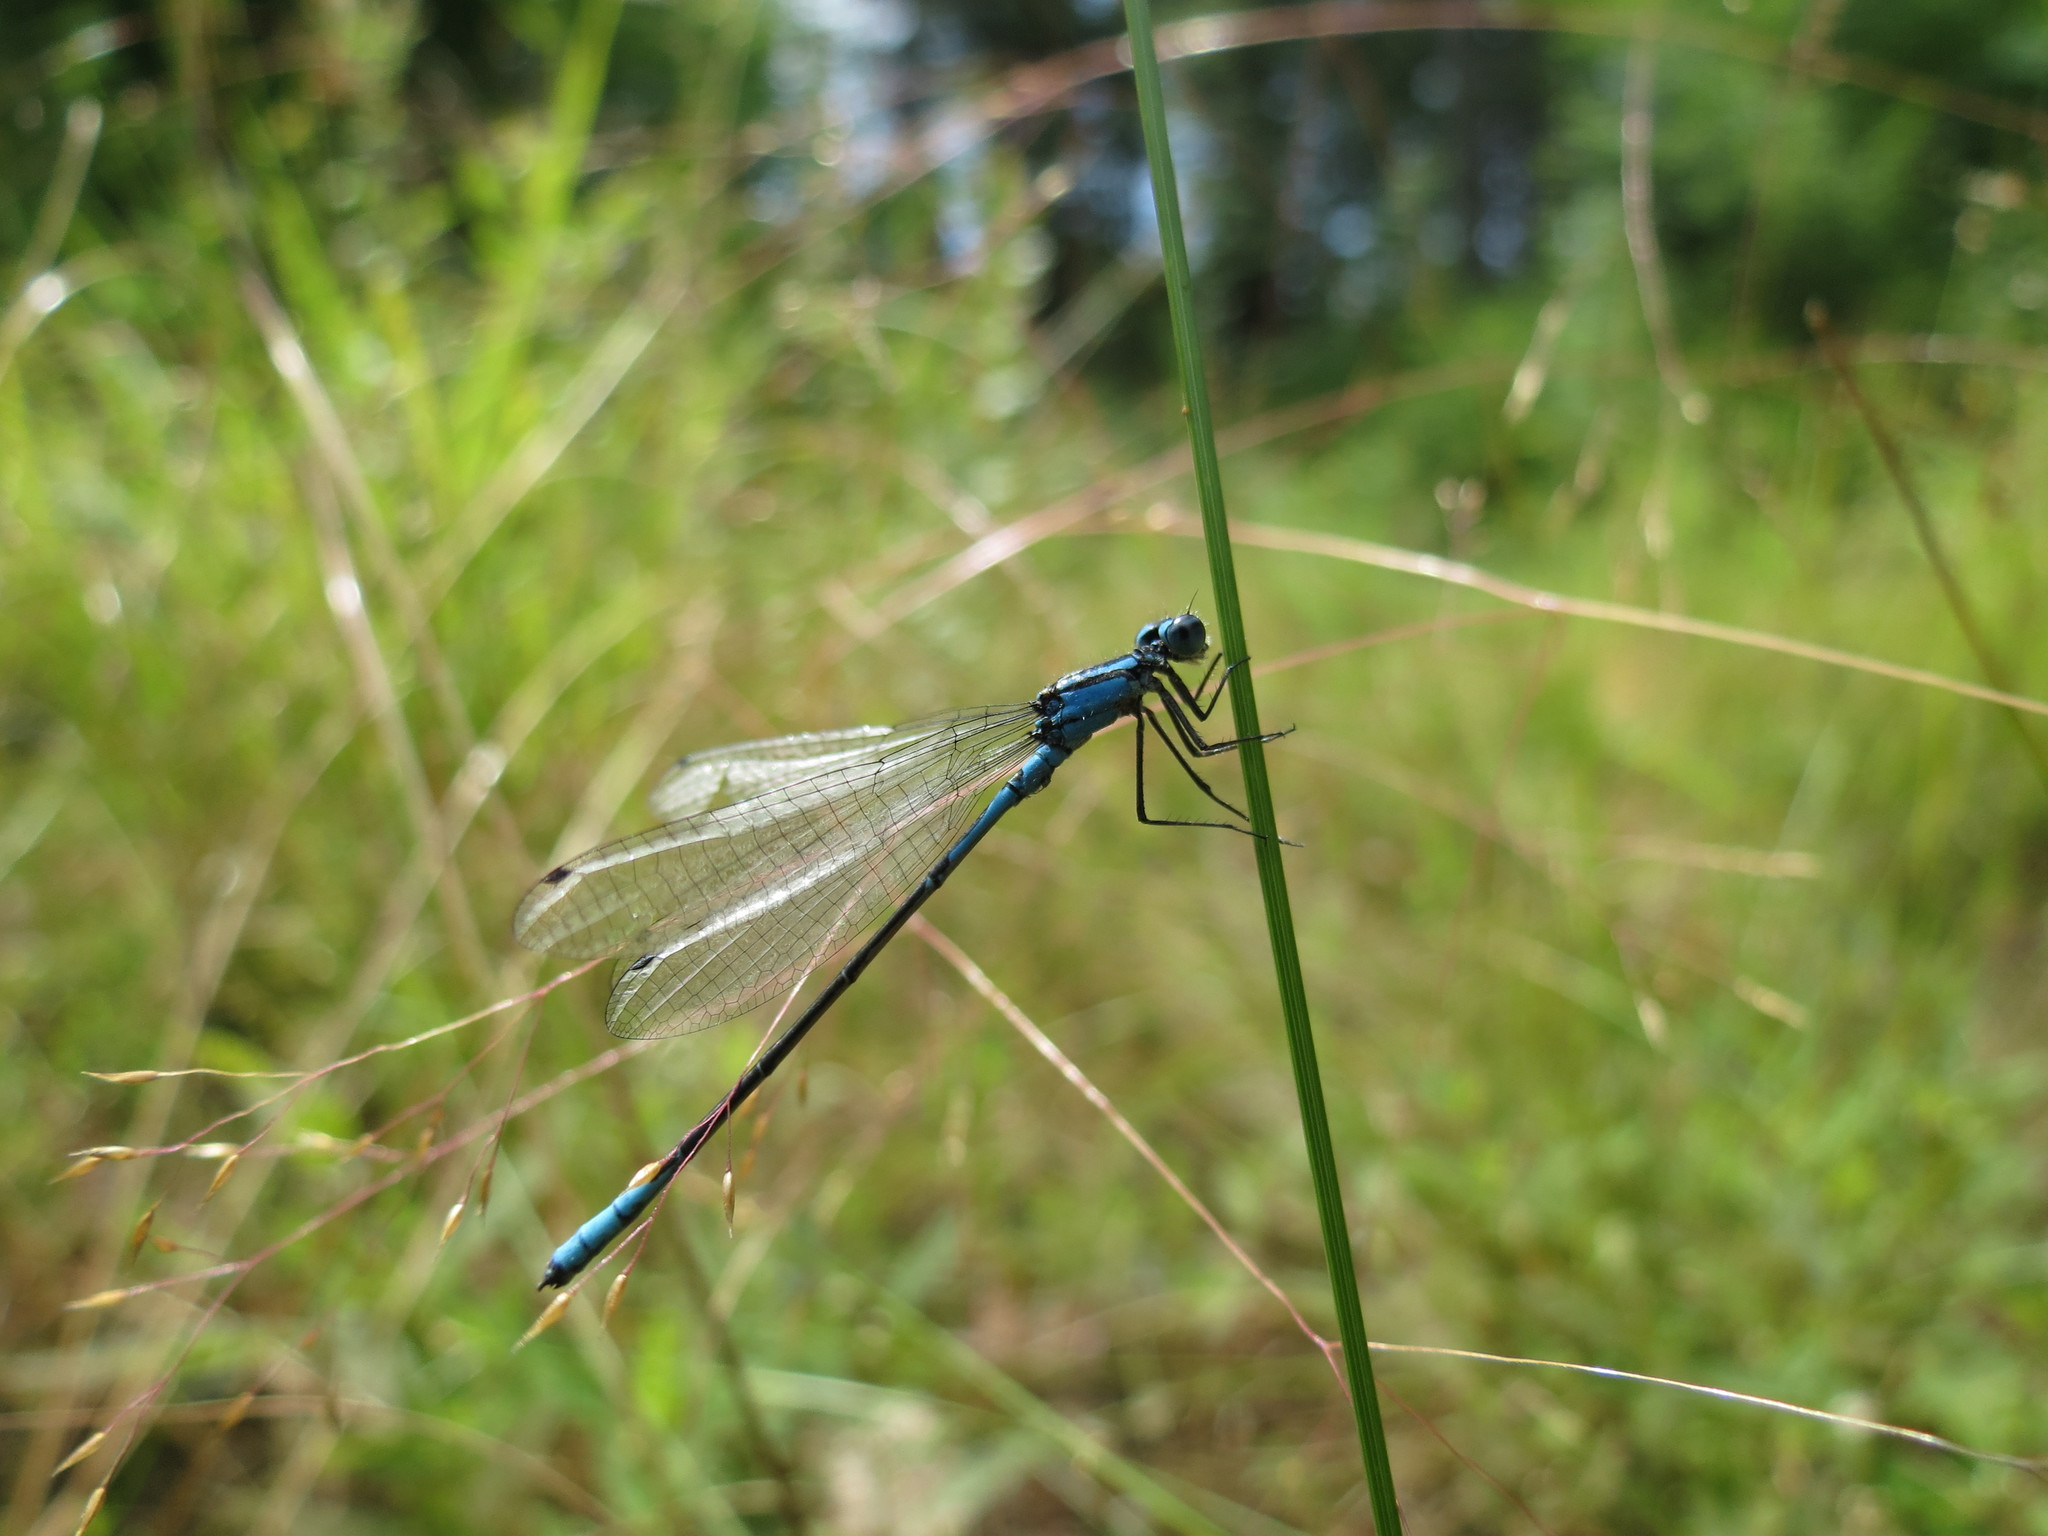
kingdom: Animalia
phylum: Arthropoda
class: Insecta
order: Odonata
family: Coenagrionidae
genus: Enallagma
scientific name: Enallagma aspersum
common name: Azure bluet
